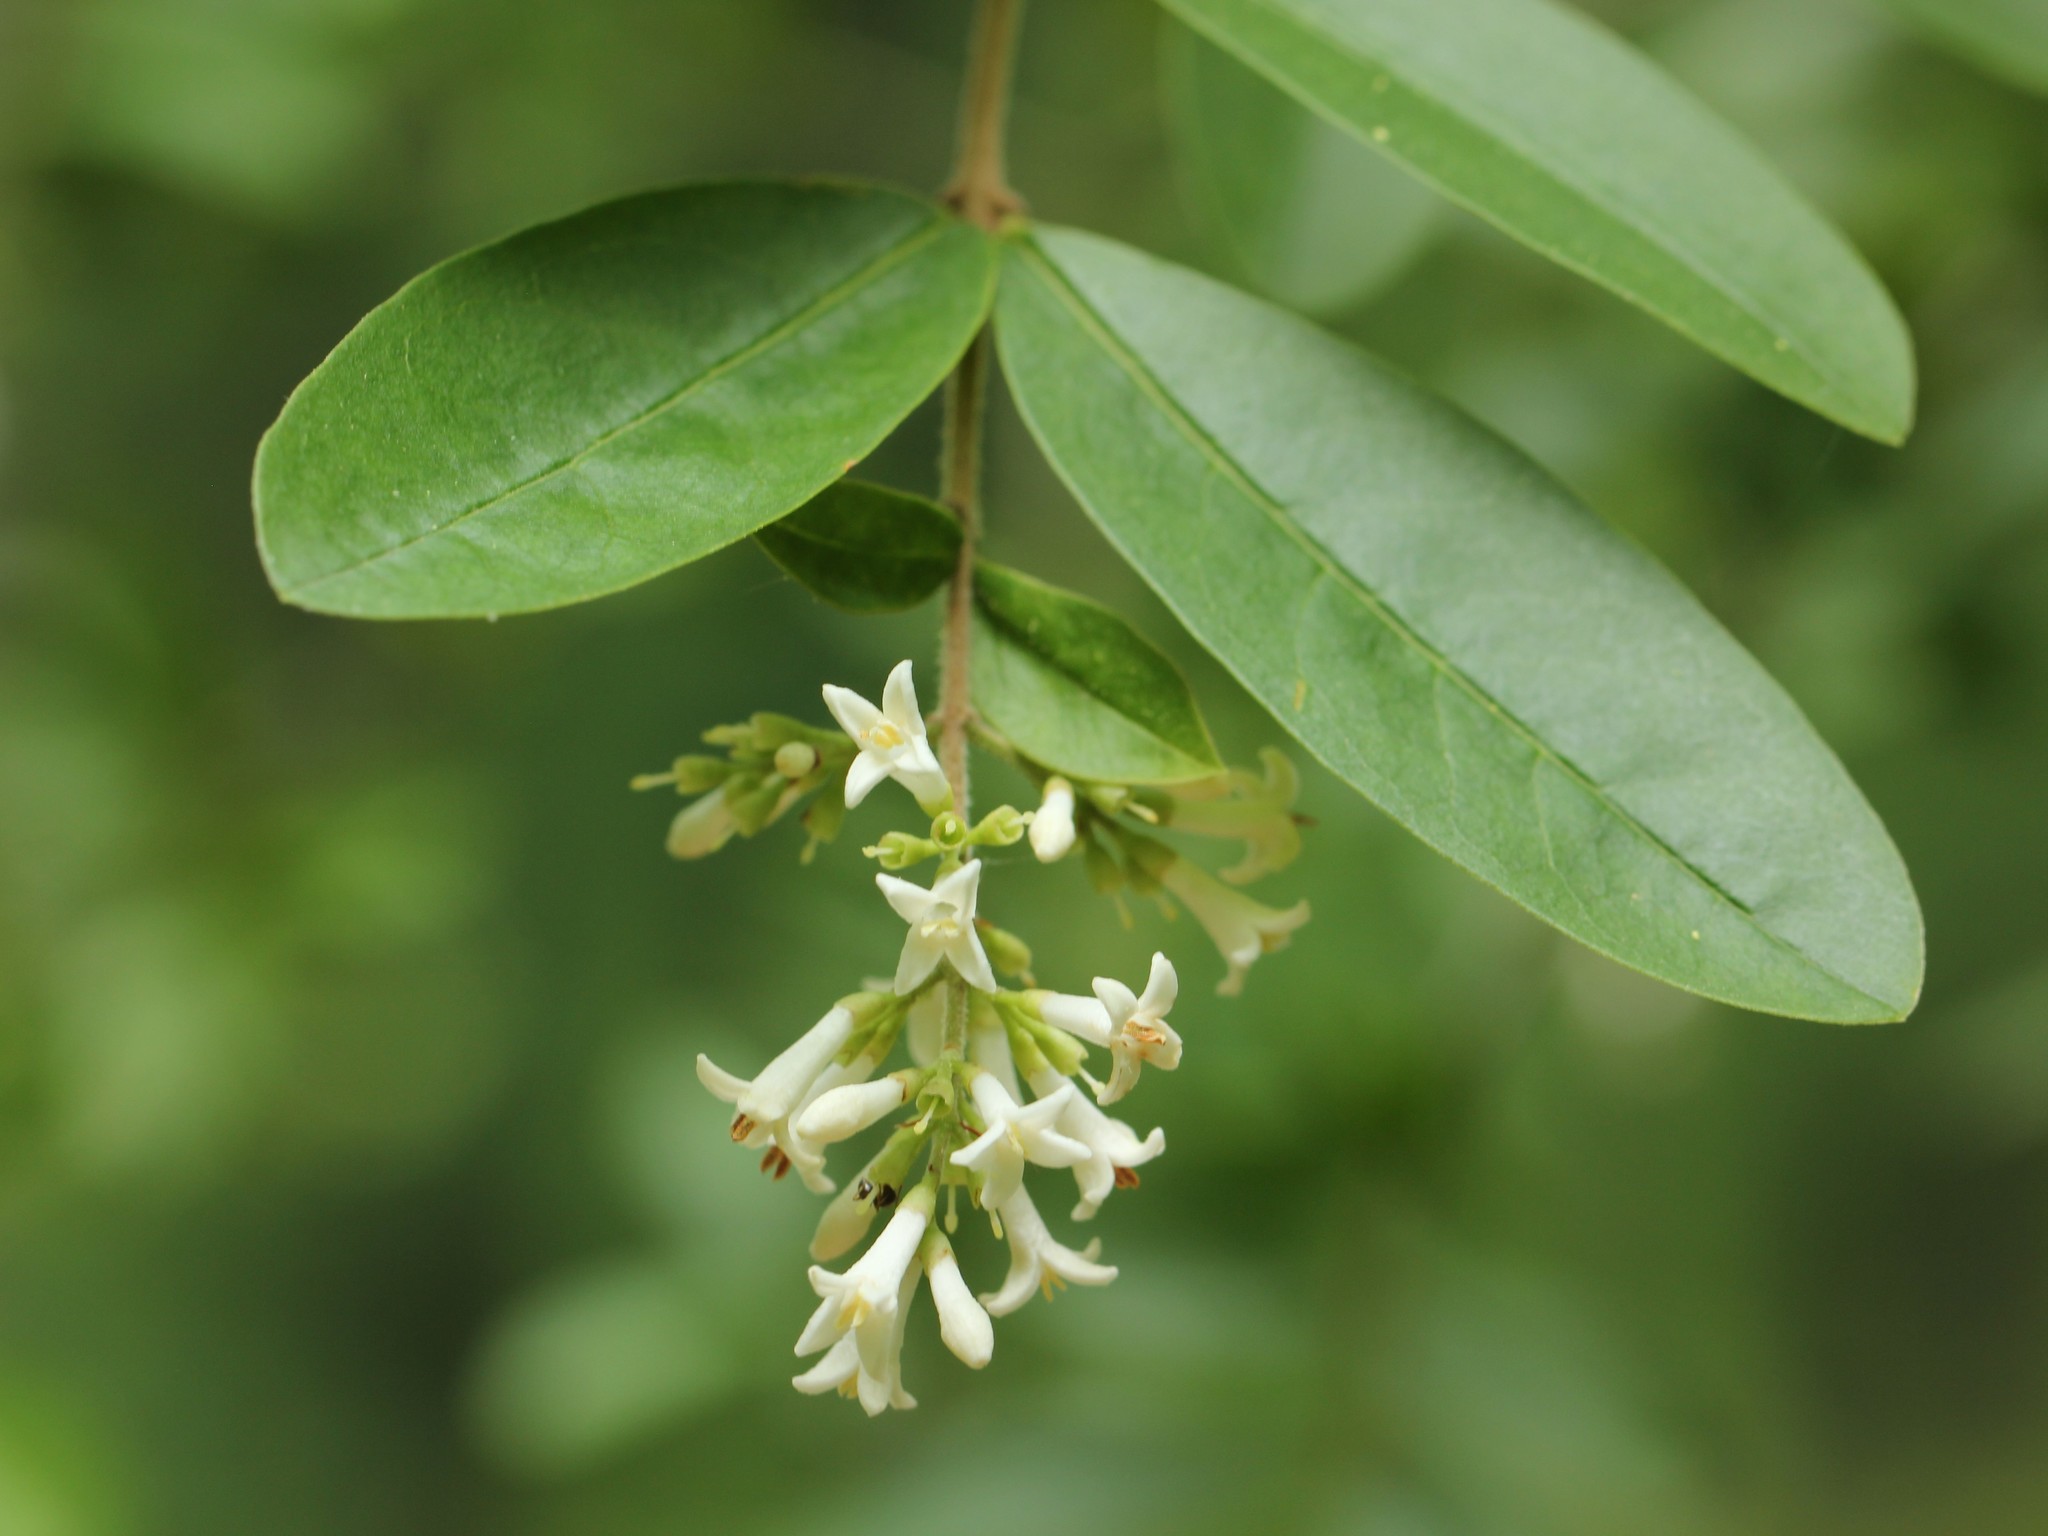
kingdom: Plantae
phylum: Tracheophyta
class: Magnoliopsida
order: Lamiales
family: Oleaceae
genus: Ligustrum
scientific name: Ligustrum obtusifolium
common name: Border privet
